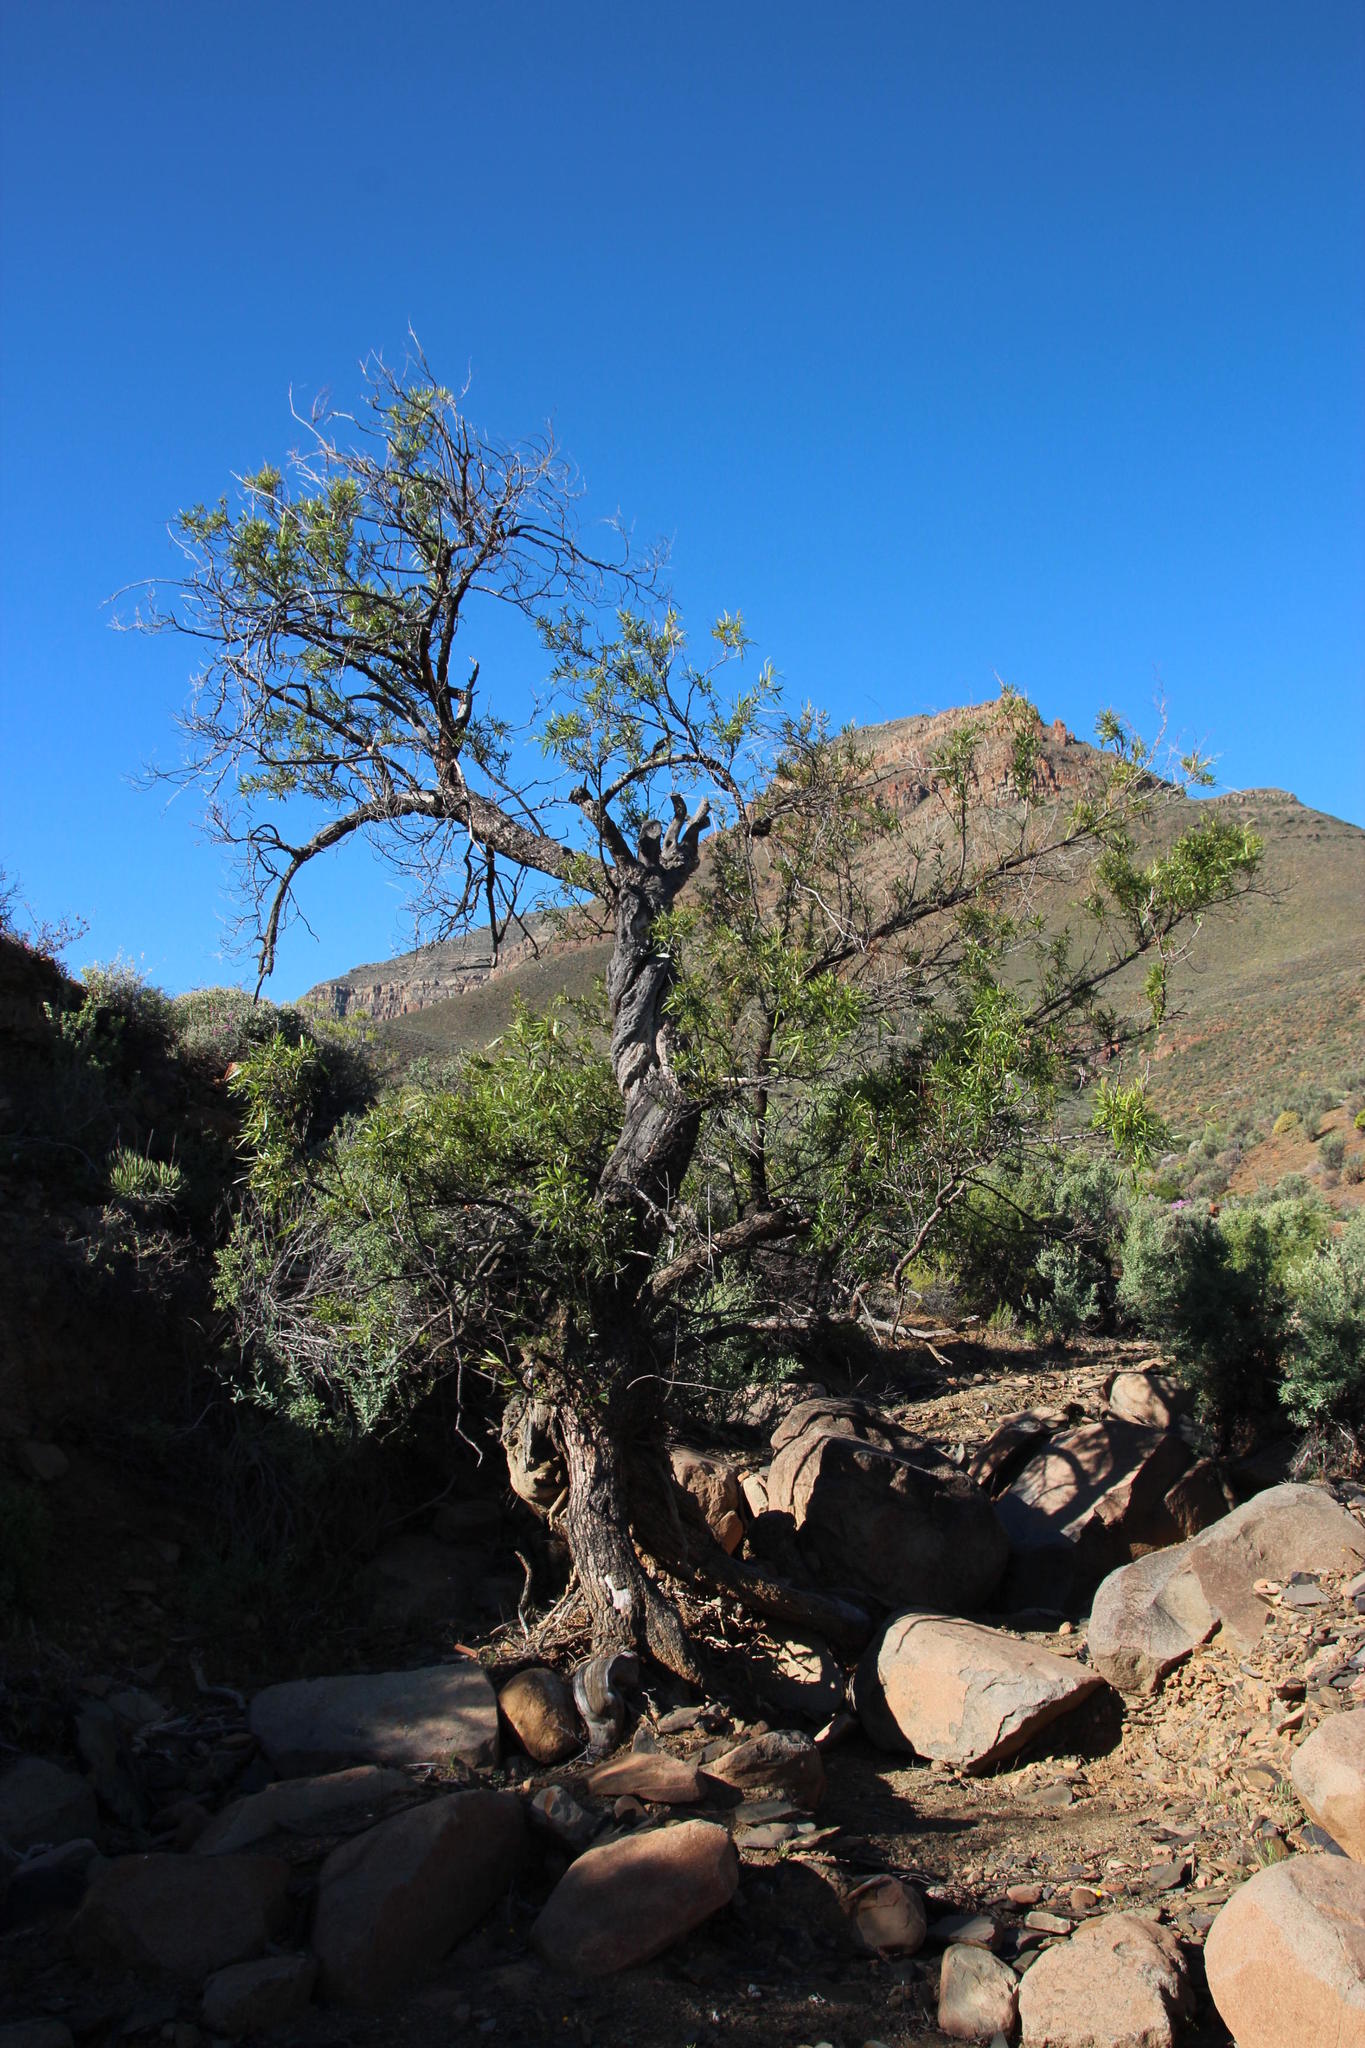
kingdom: Plantae
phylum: Tracheophyta
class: Magnoliopsida
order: Sapindales
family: Anacardiaceae
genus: Searsia
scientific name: Searsia lancea
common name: Cashew
